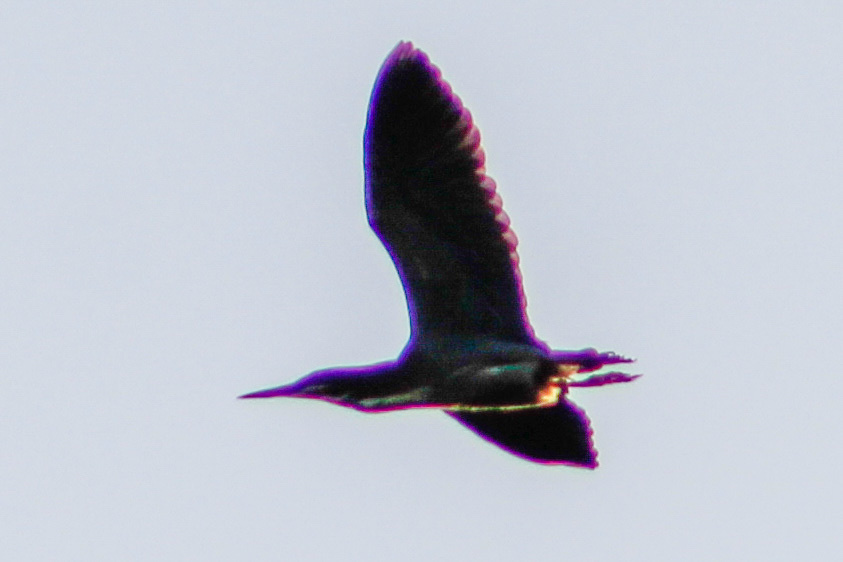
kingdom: Animalia
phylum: Chordata
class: Aves
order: Pelecaniformes
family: Ardeidae
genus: Butorides
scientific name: Butorides virescens
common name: Green heron
